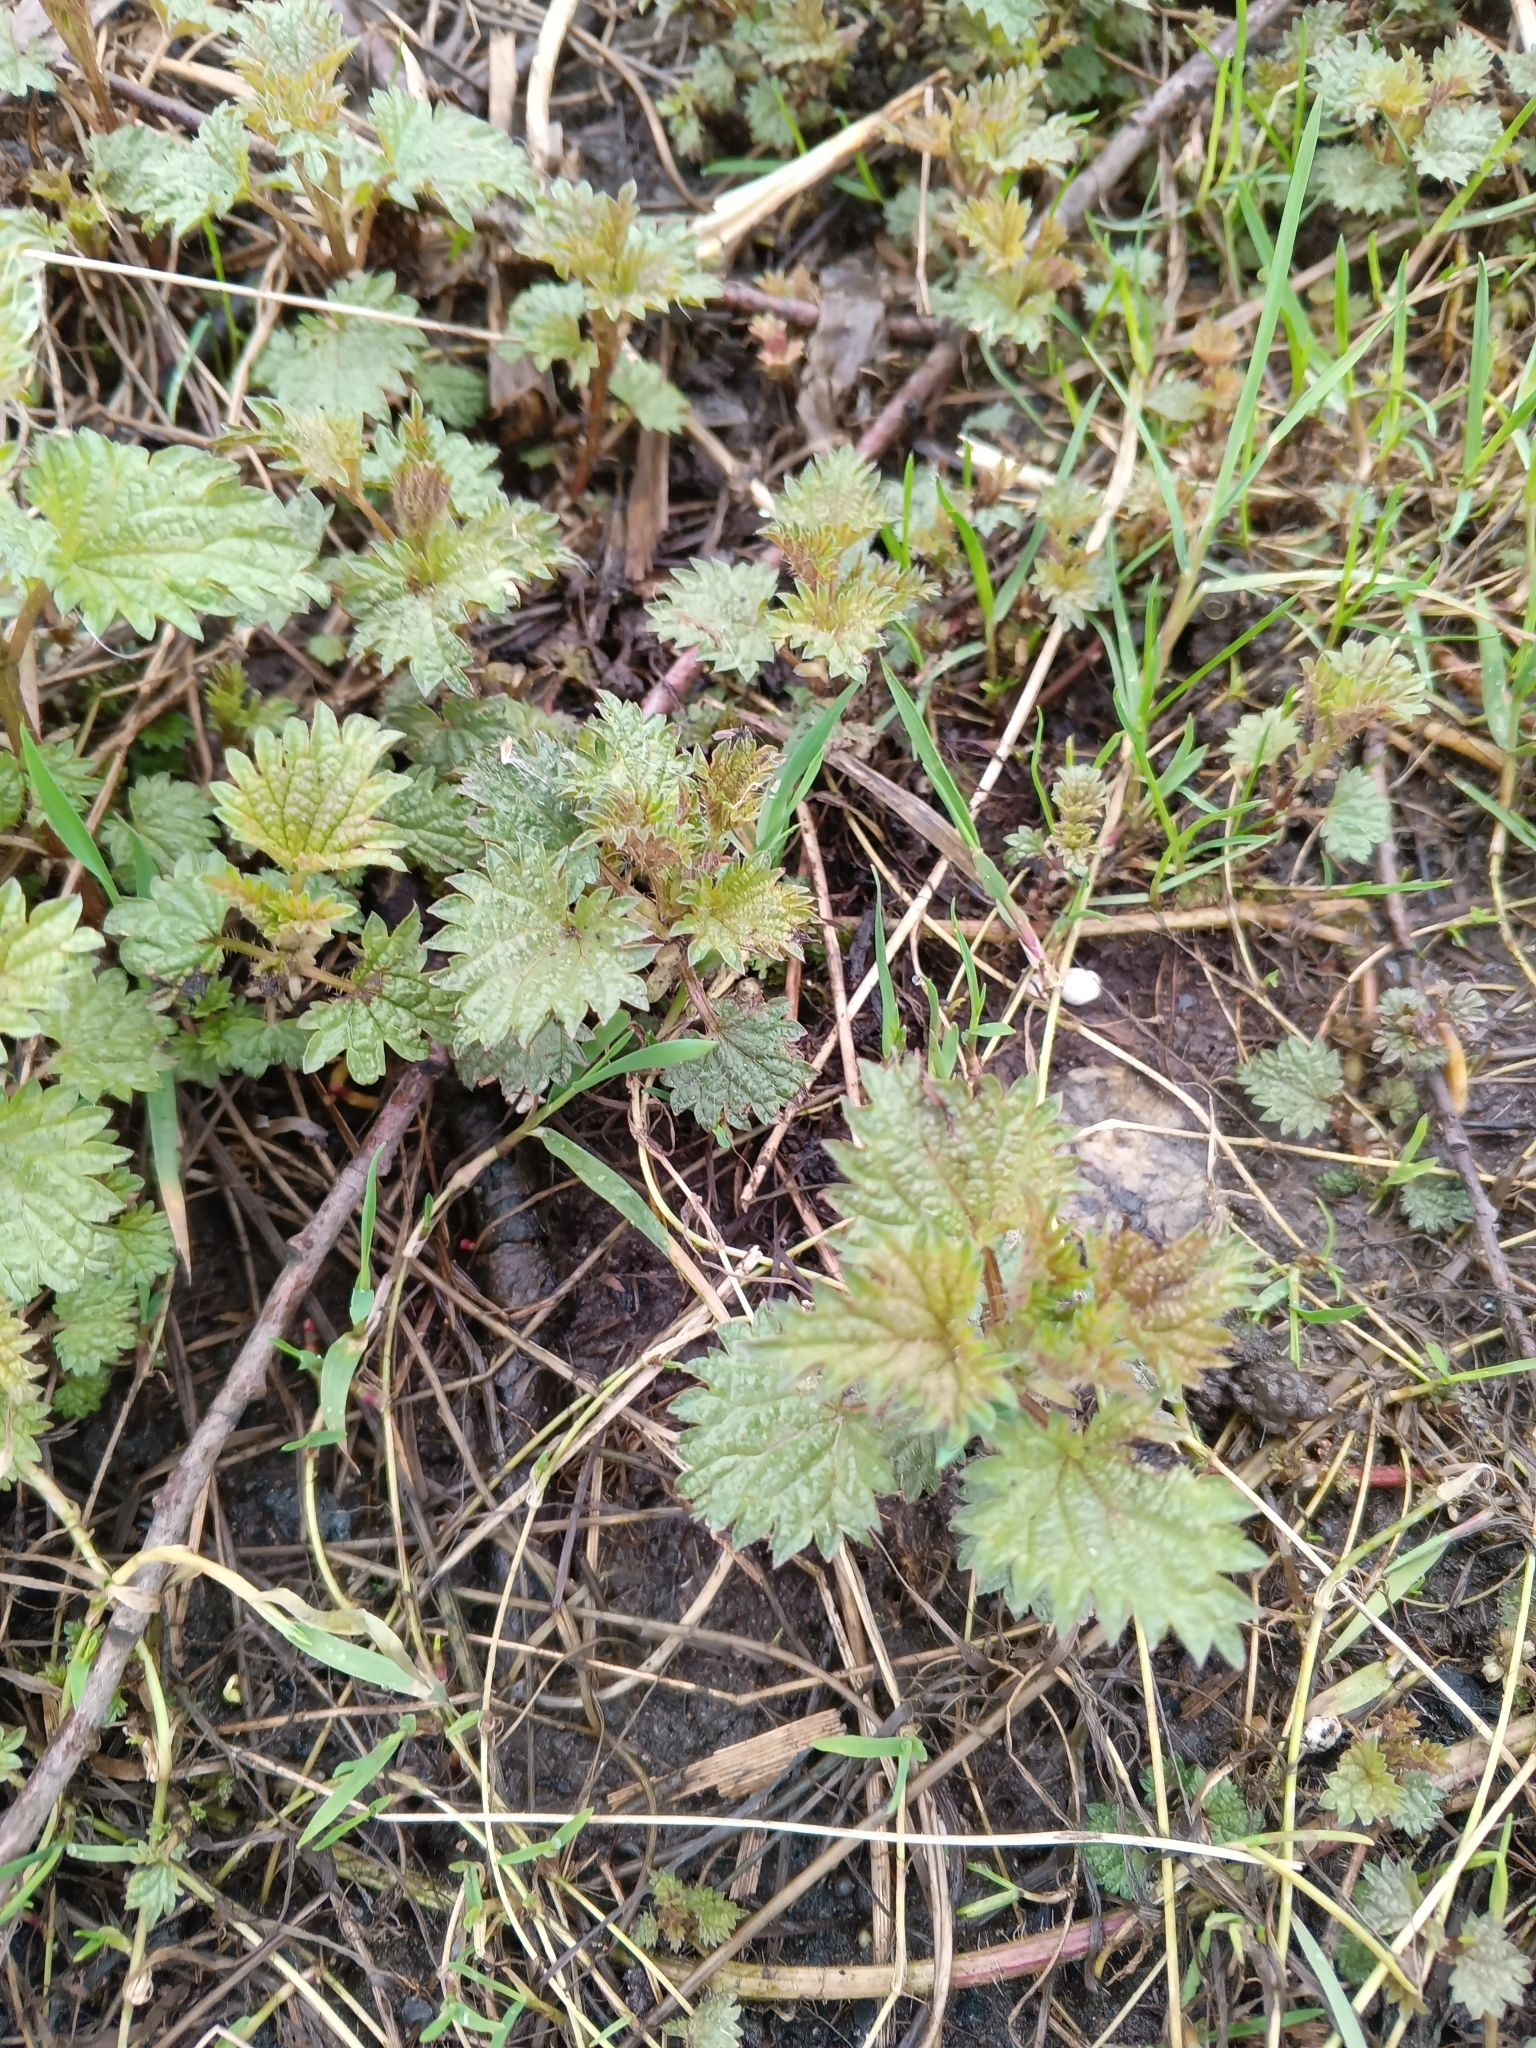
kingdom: Plantae
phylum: Tracheophyta
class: Magnoliopsida
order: Rosales
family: Urticaceae
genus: Urtica
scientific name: Urtica dioica
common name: Common nettle
